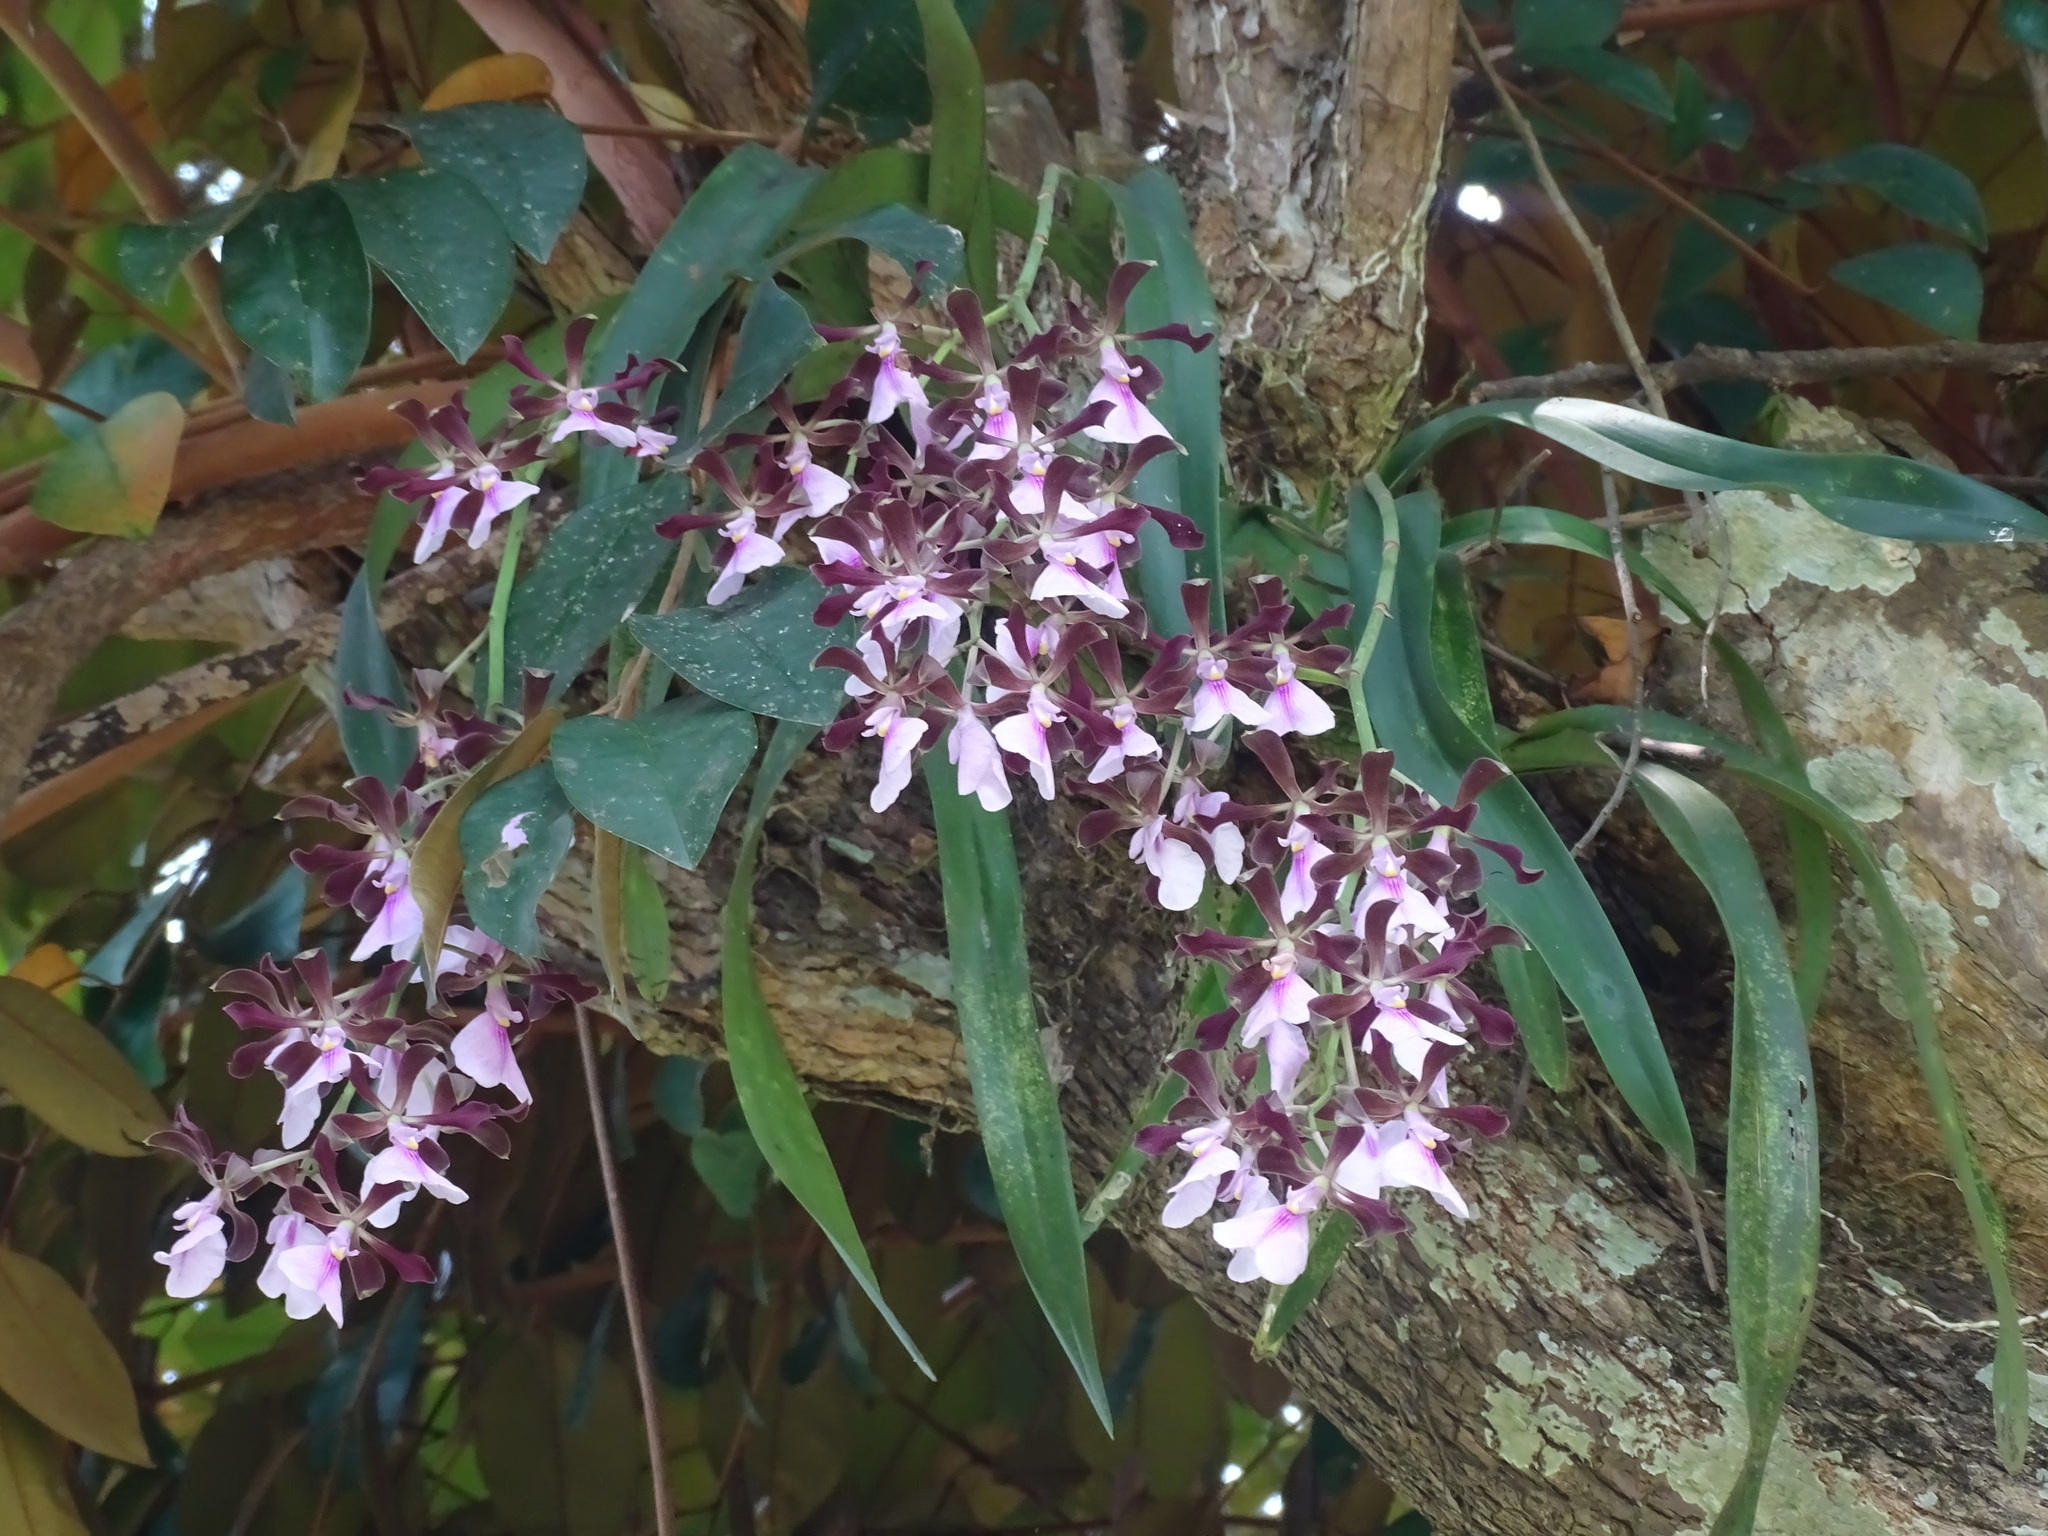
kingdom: Plantae
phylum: Tracheophyta
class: Liliopsida
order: Asparagales
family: Orchidaceae
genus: Encyclia
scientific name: Encyclia cordigera
